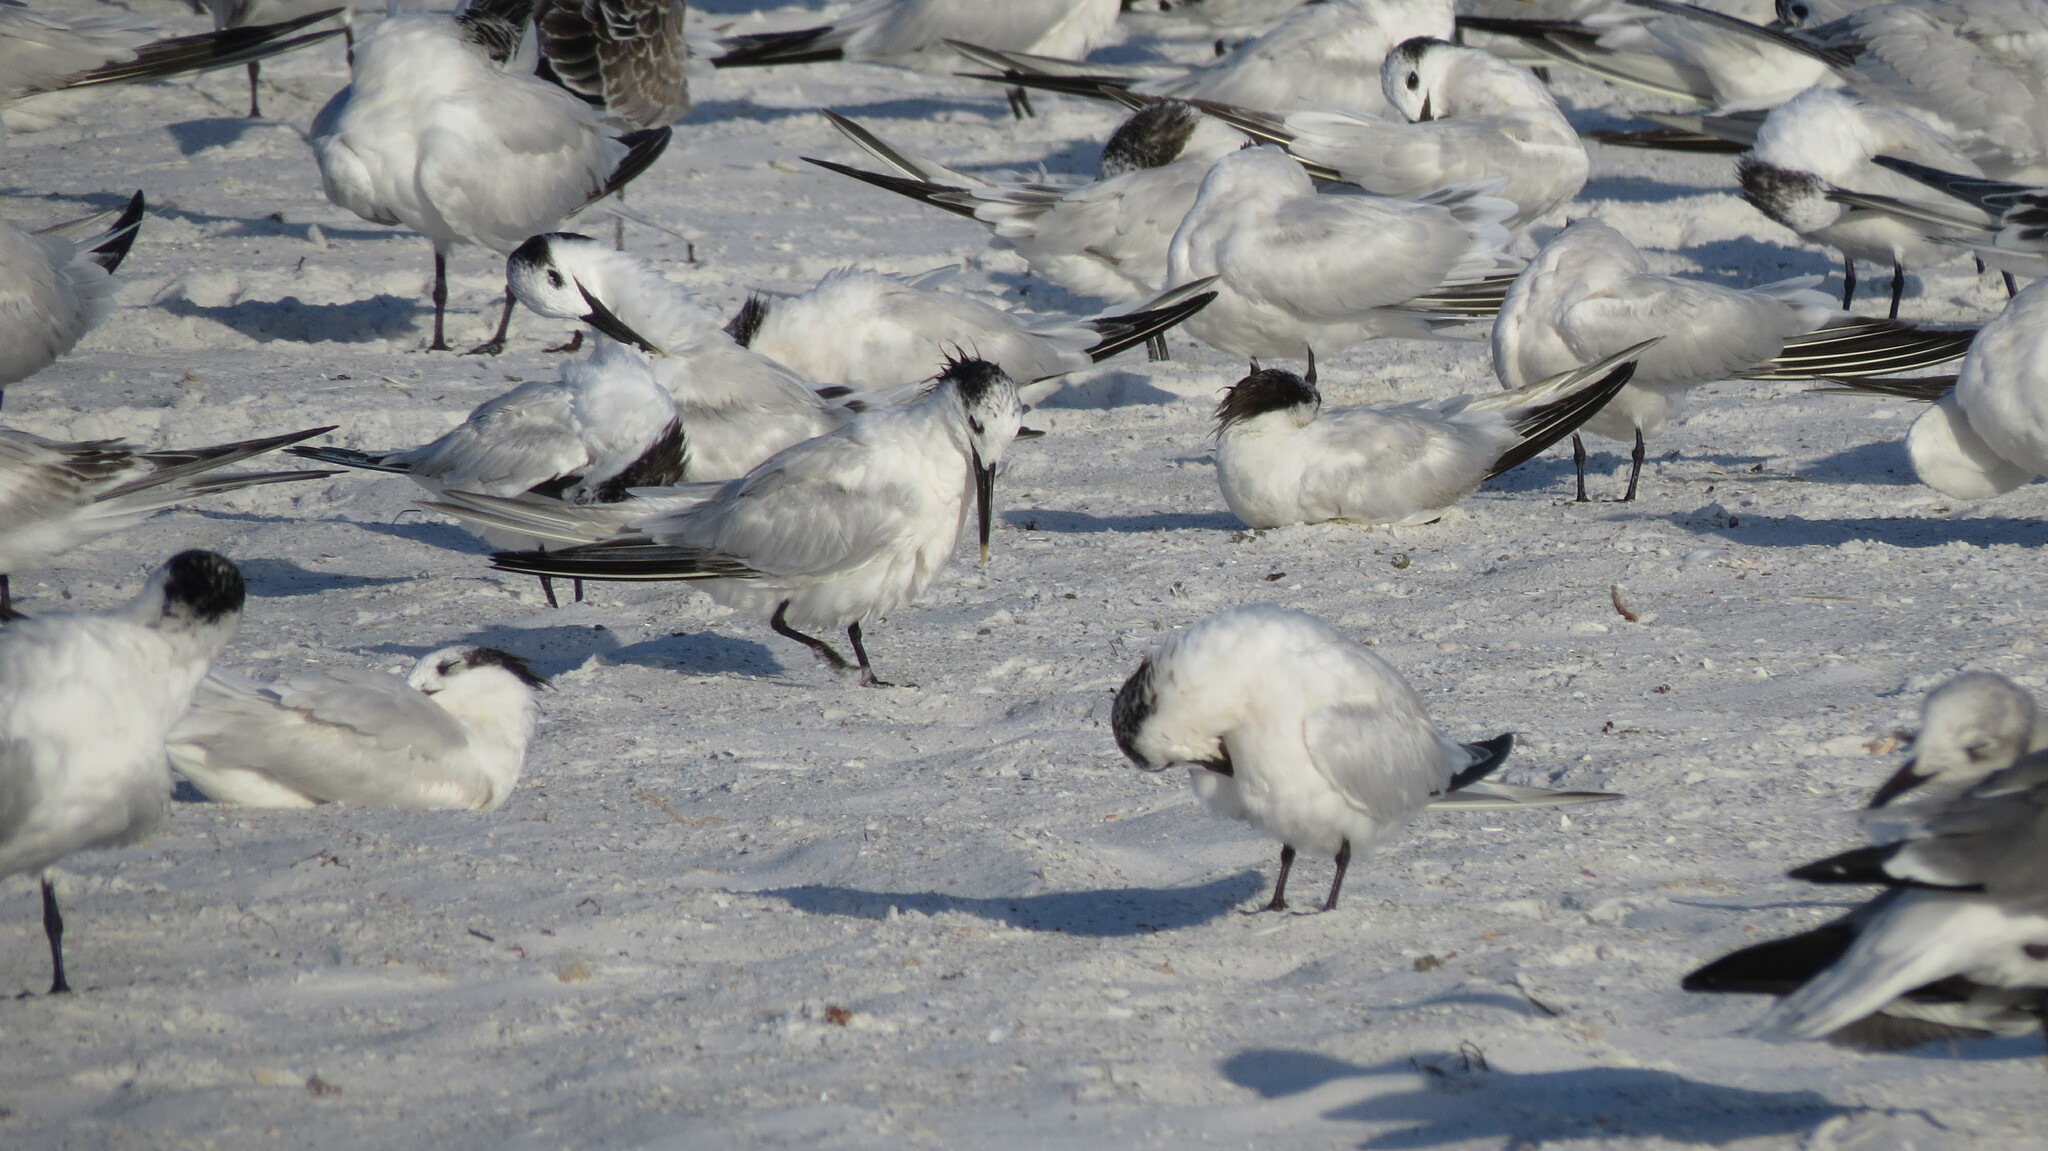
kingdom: Animalia
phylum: Chordata
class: Aves
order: Charadriiformes
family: Laridae
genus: Thalasseus
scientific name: Thalasseus sandvicensis
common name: Sandwich tern
